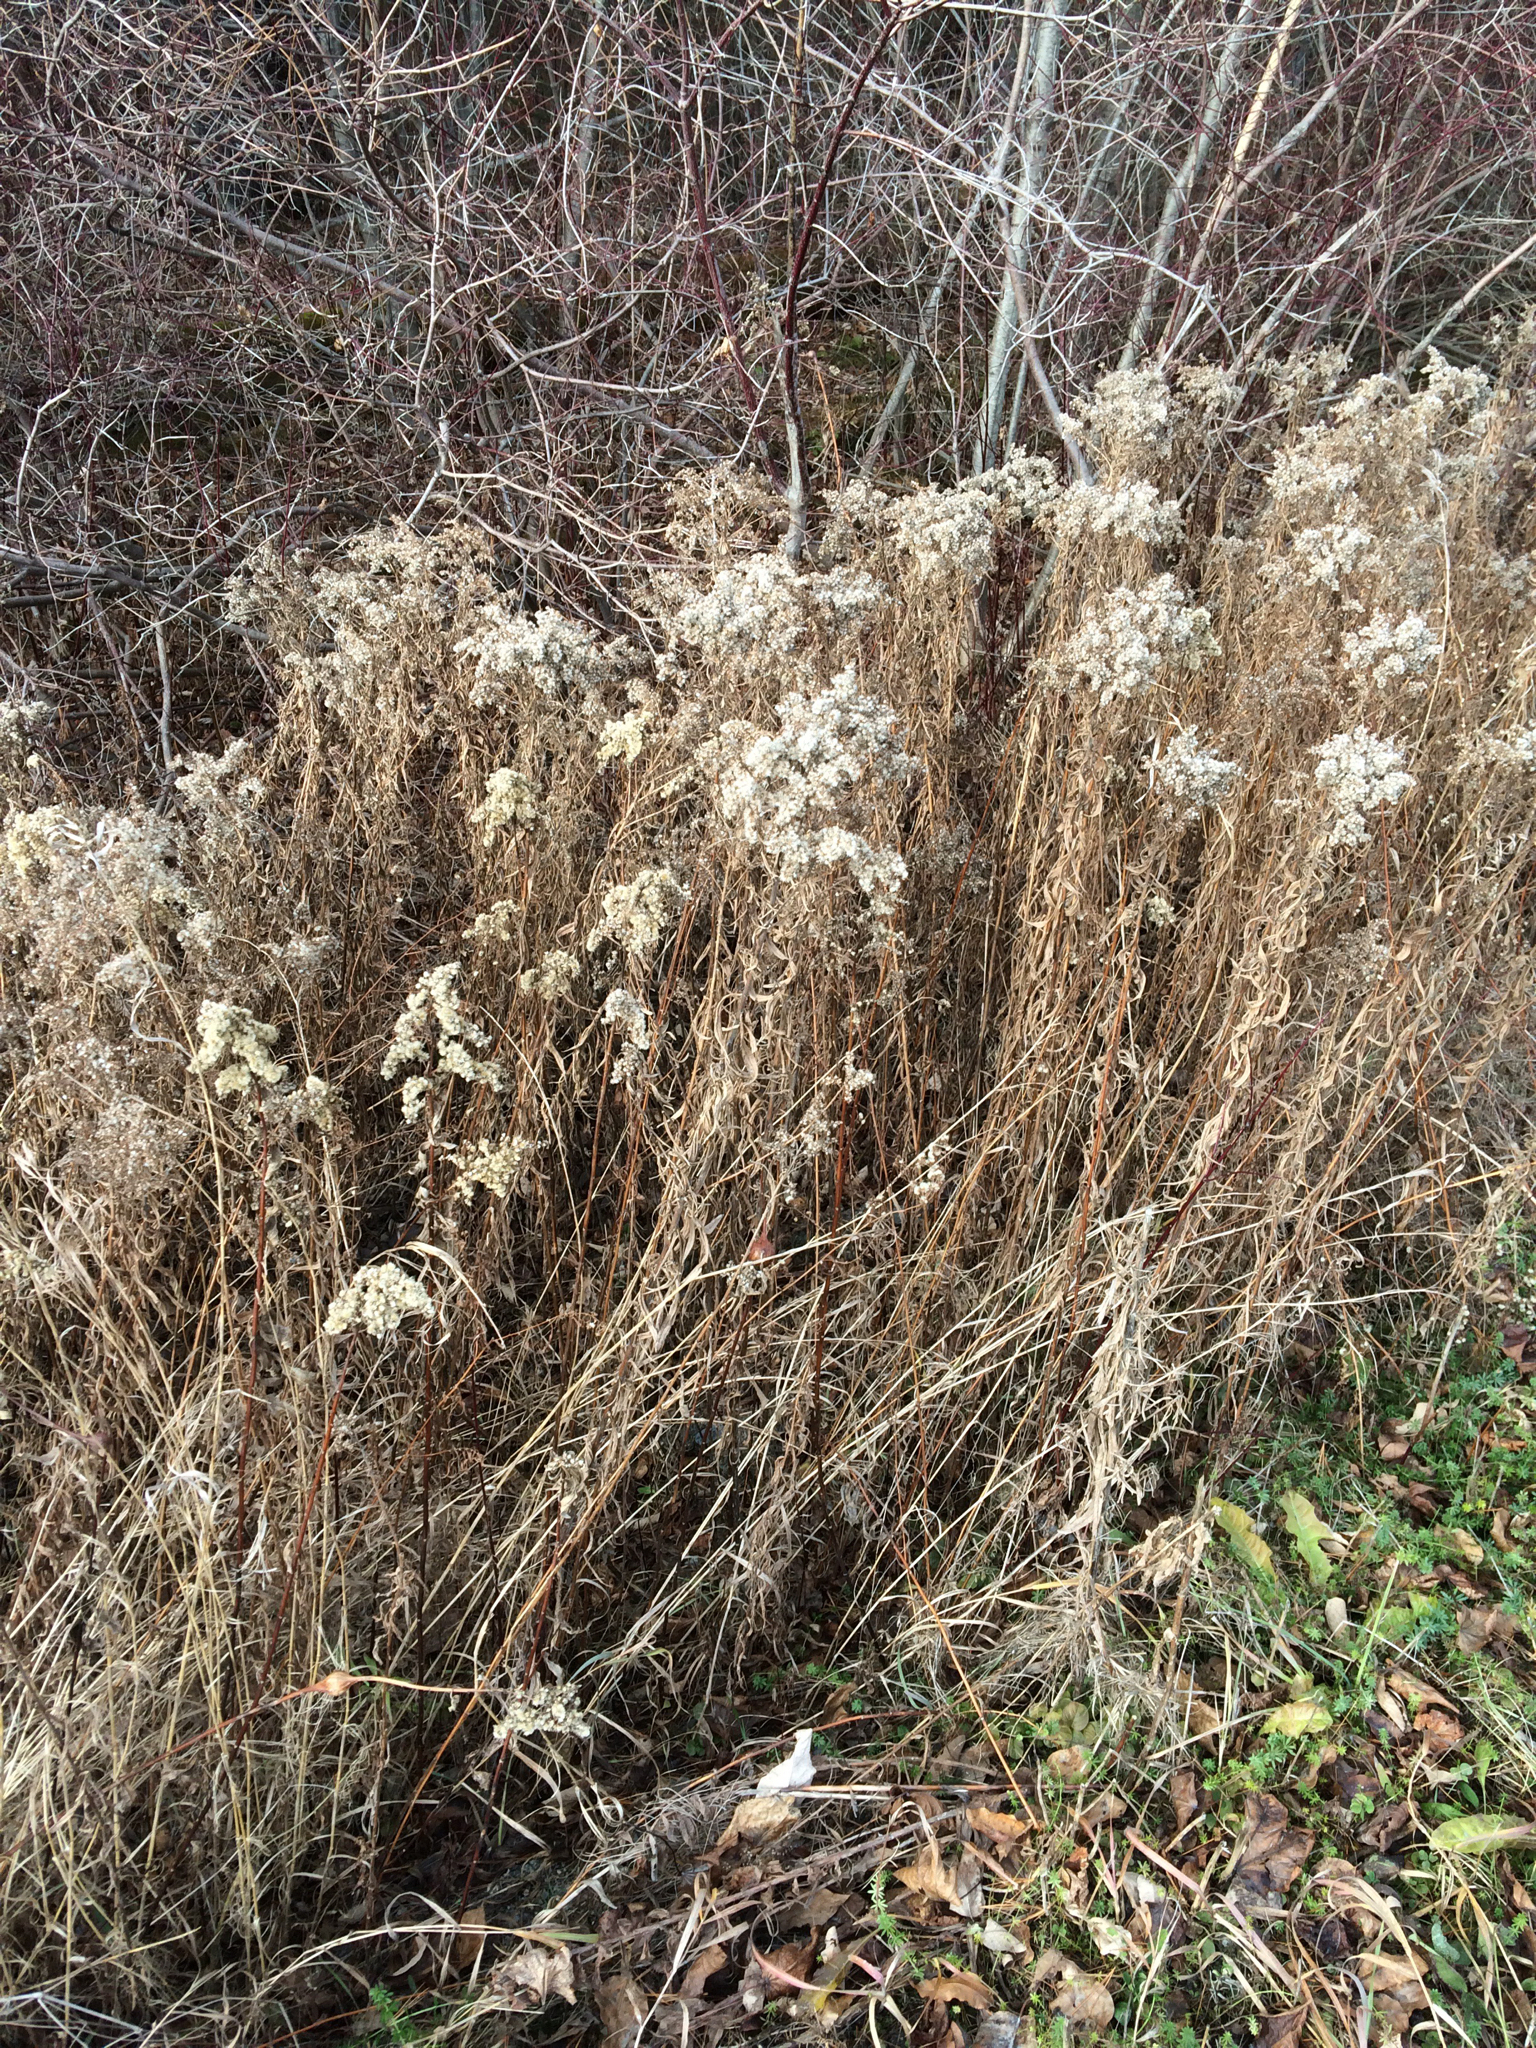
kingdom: Plantae
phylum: Tracheophyta
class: Magnoliopsida
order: Asterales
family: Asteraceae
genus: Solidago
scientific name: Solidago
